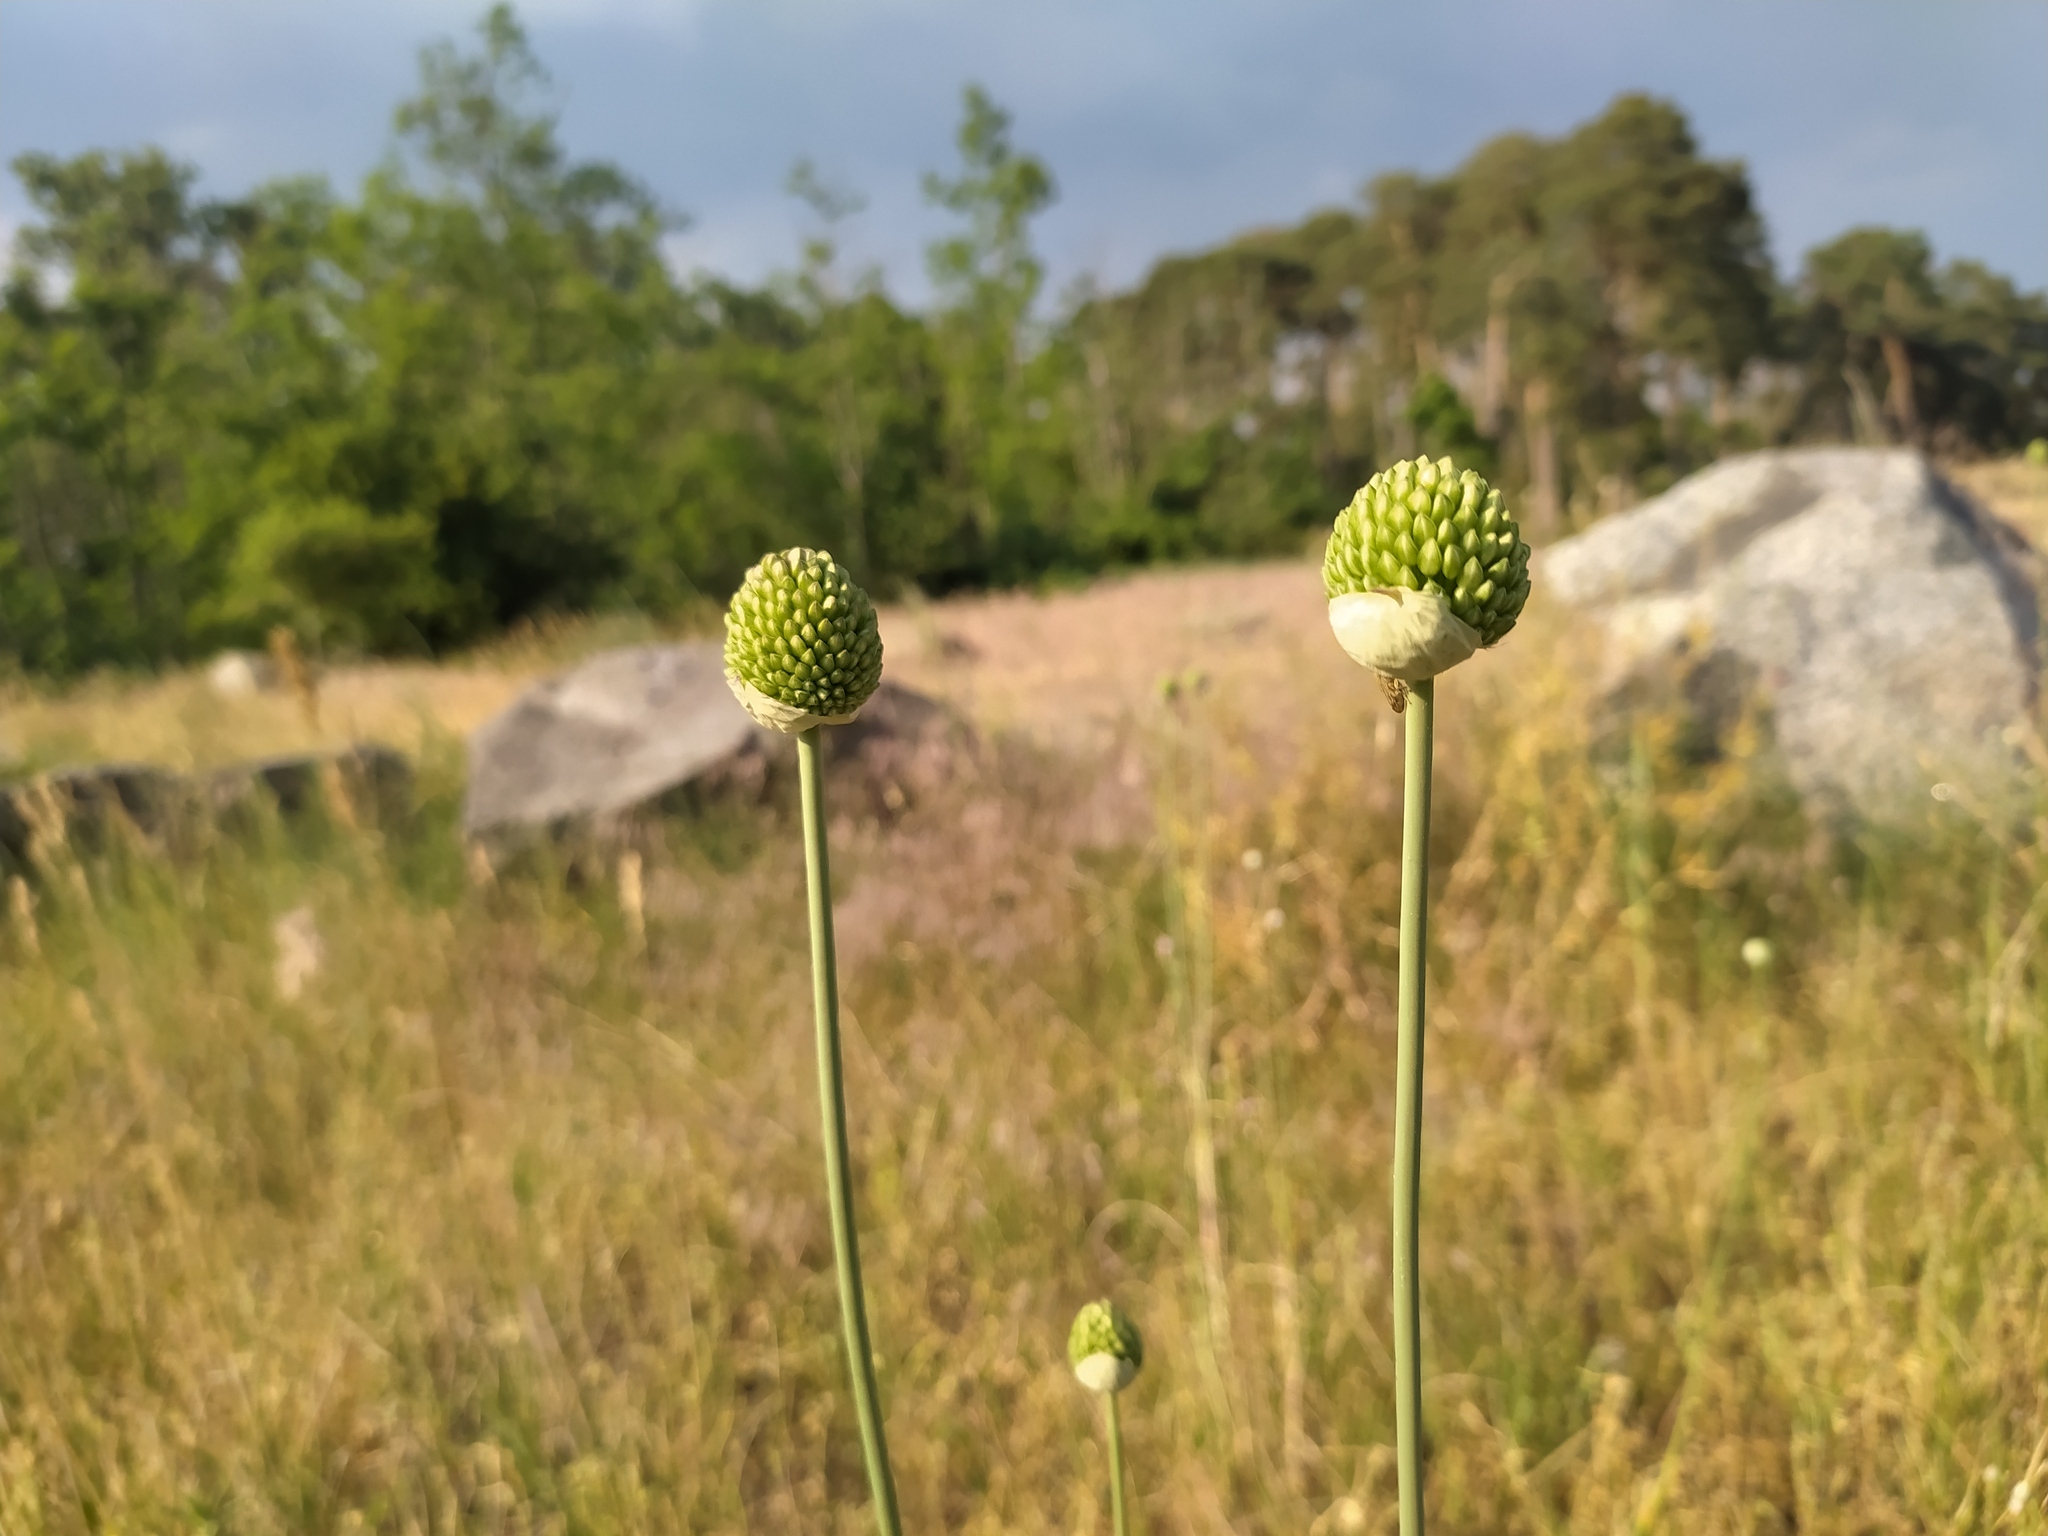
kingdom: Plantae
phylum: Tracheophyta
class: Liliopsida
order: Asparagales
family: Amaryllidaceae
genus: Allium
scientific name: Allium sphaerocephalon
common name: Round-headed leek
